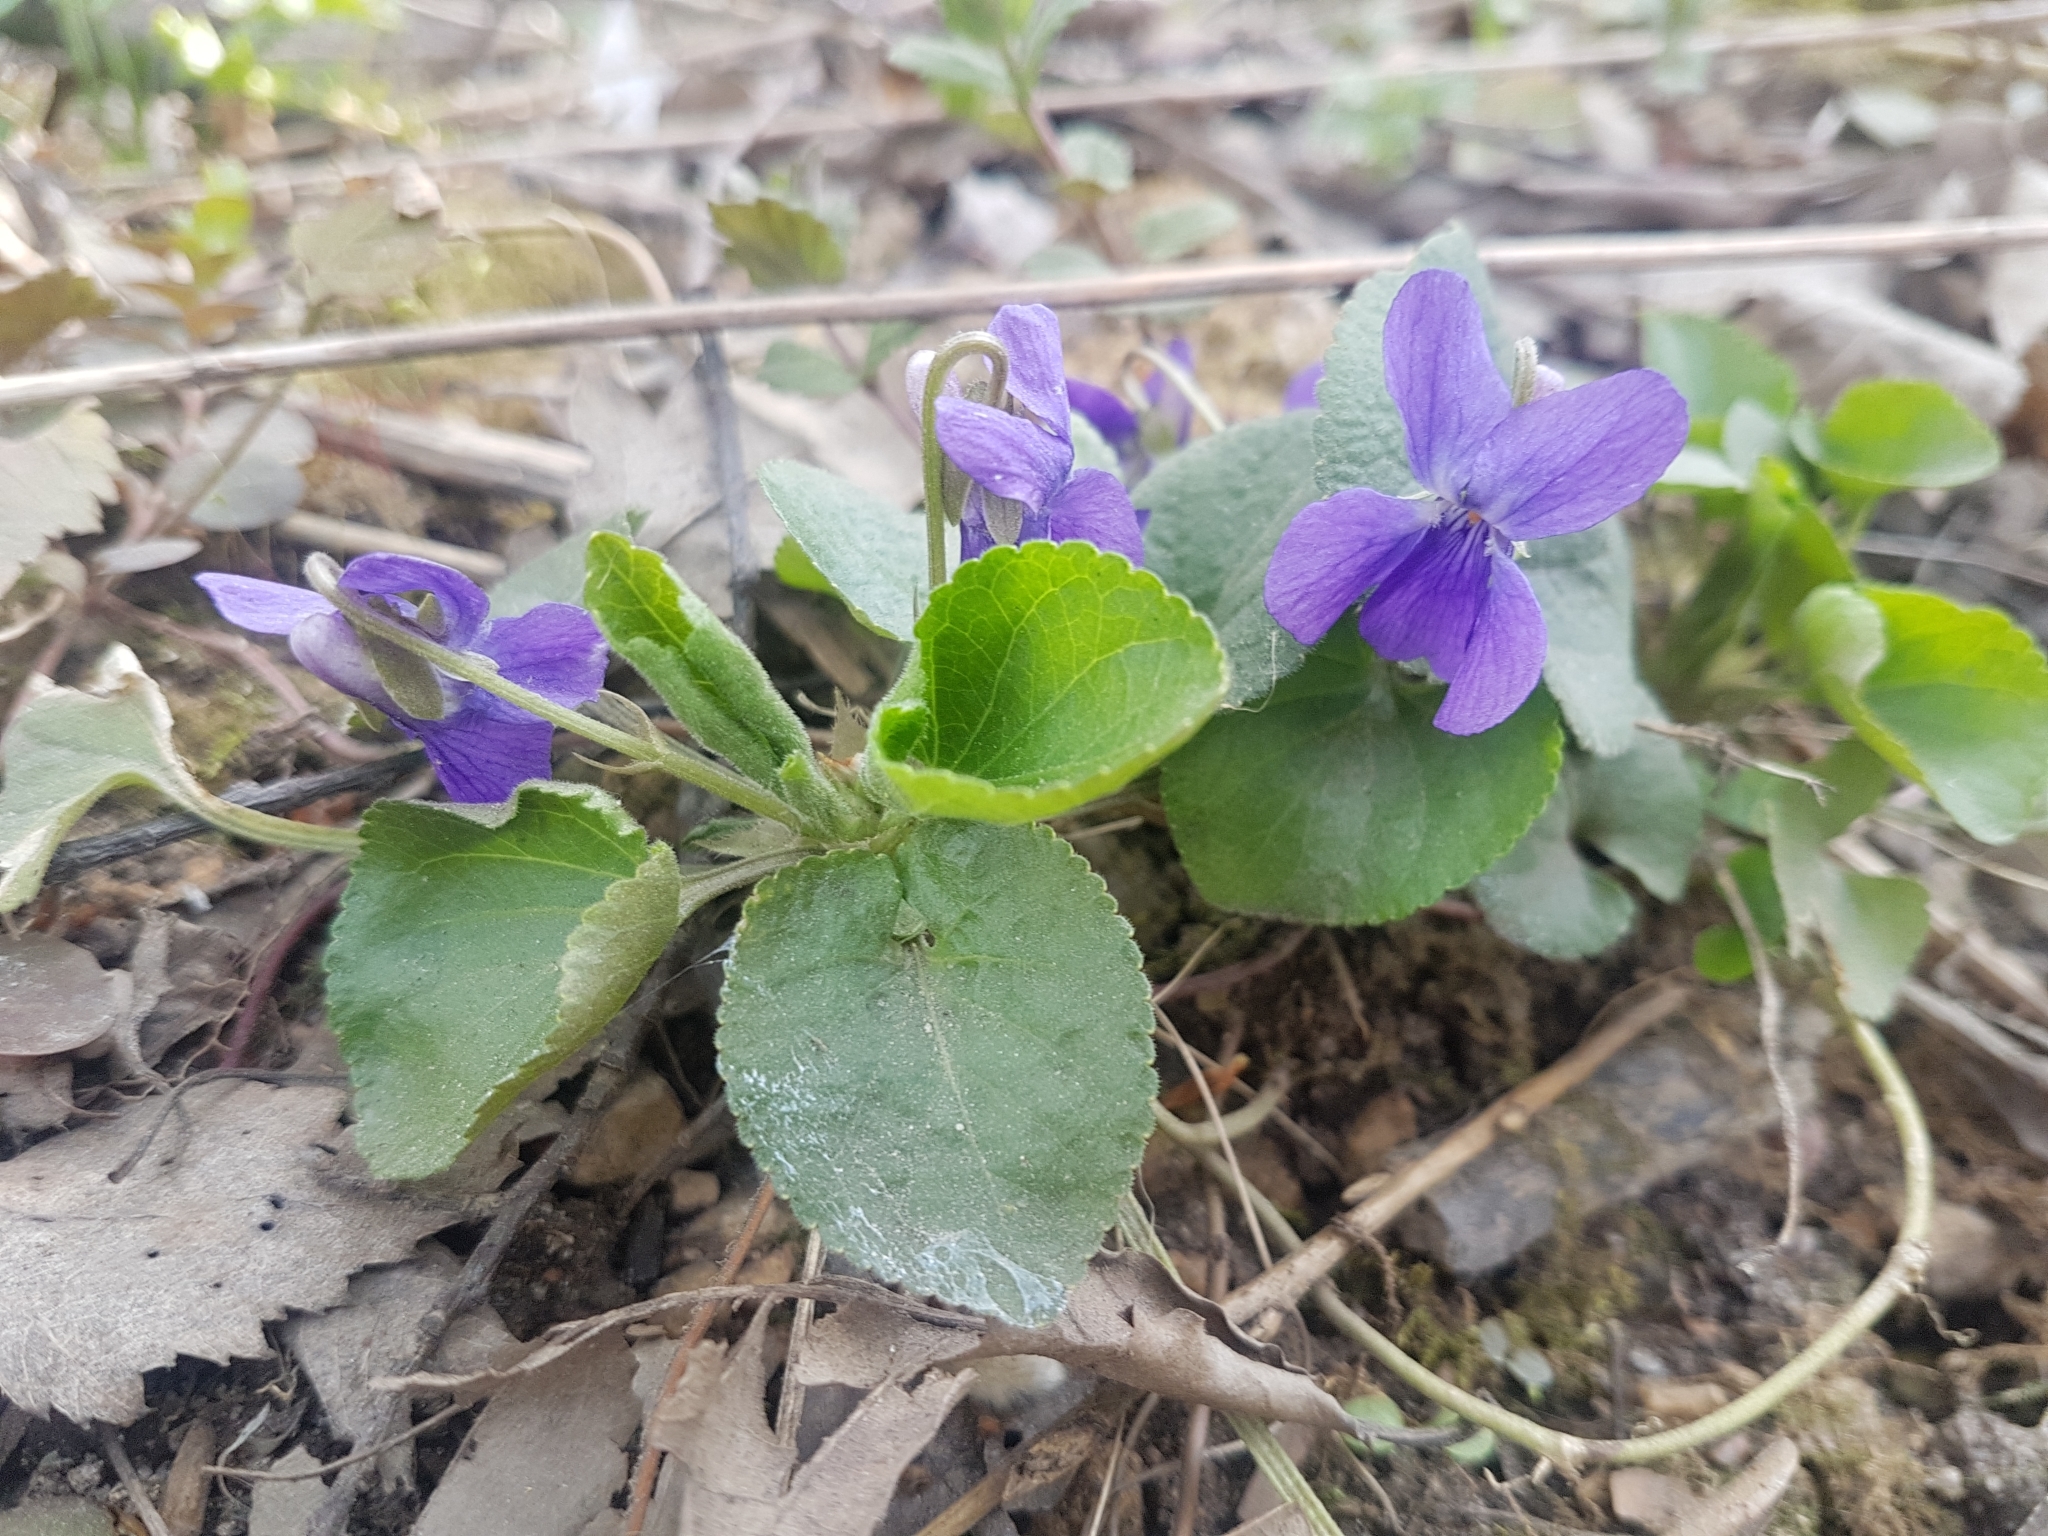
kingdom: Plantae
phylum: Tracheophyta
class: Magnoliopsida
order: Malpighiales
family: Violaceae
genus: Viola
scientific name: Viola odorata
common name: Sweet violet
